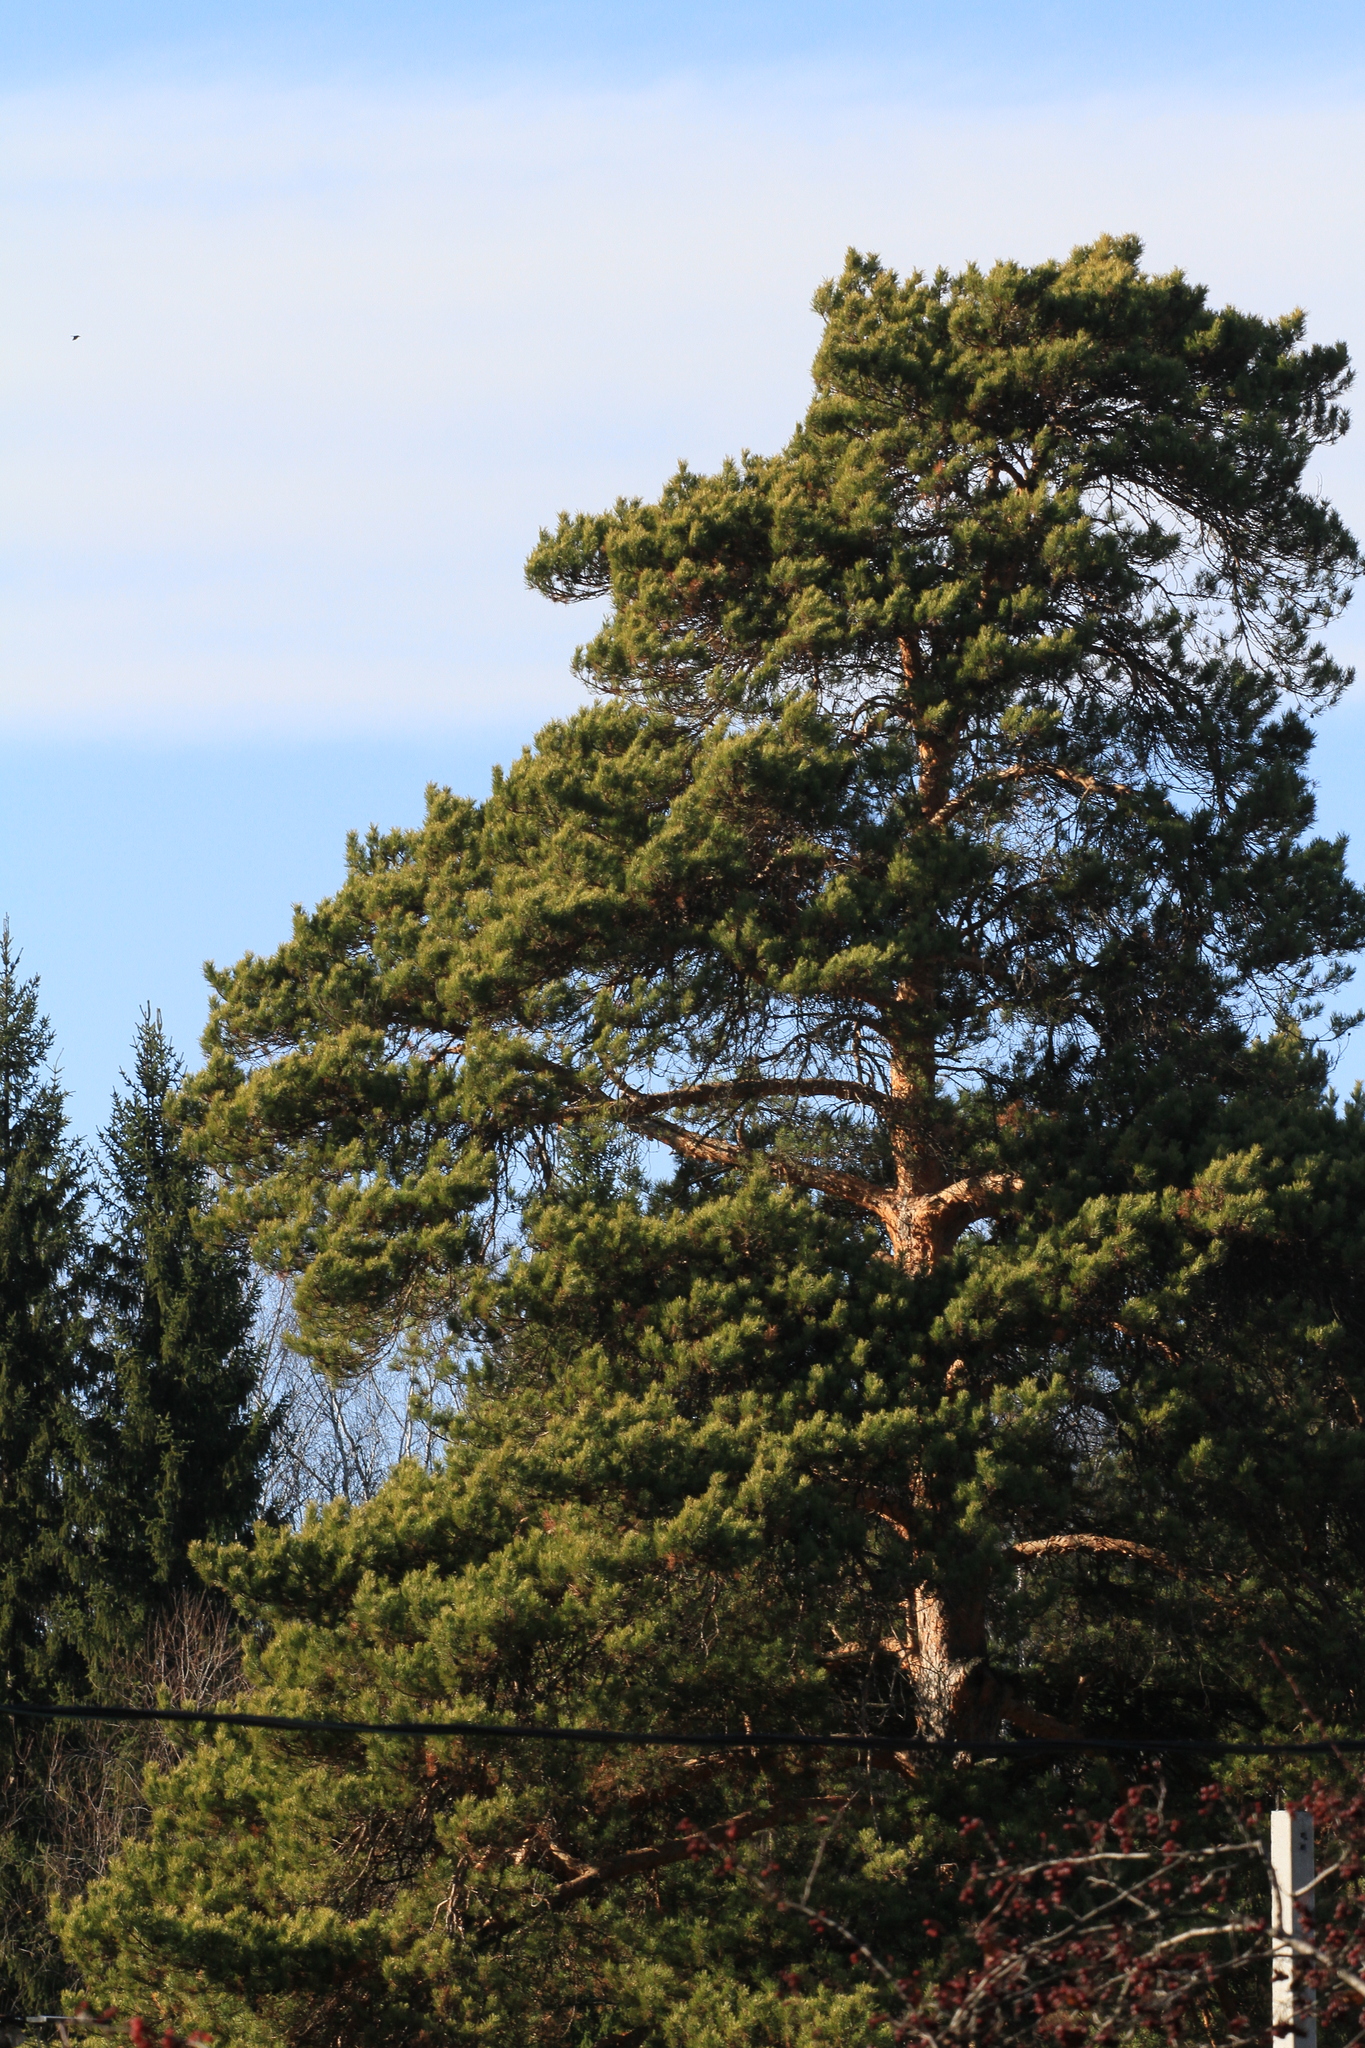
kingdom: Plantae
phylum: Tracheophyta
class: Pinopsida
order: Pinales
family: Pinaceae
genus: Pinus
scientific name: Pinus sylvestris
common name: Scots pine
